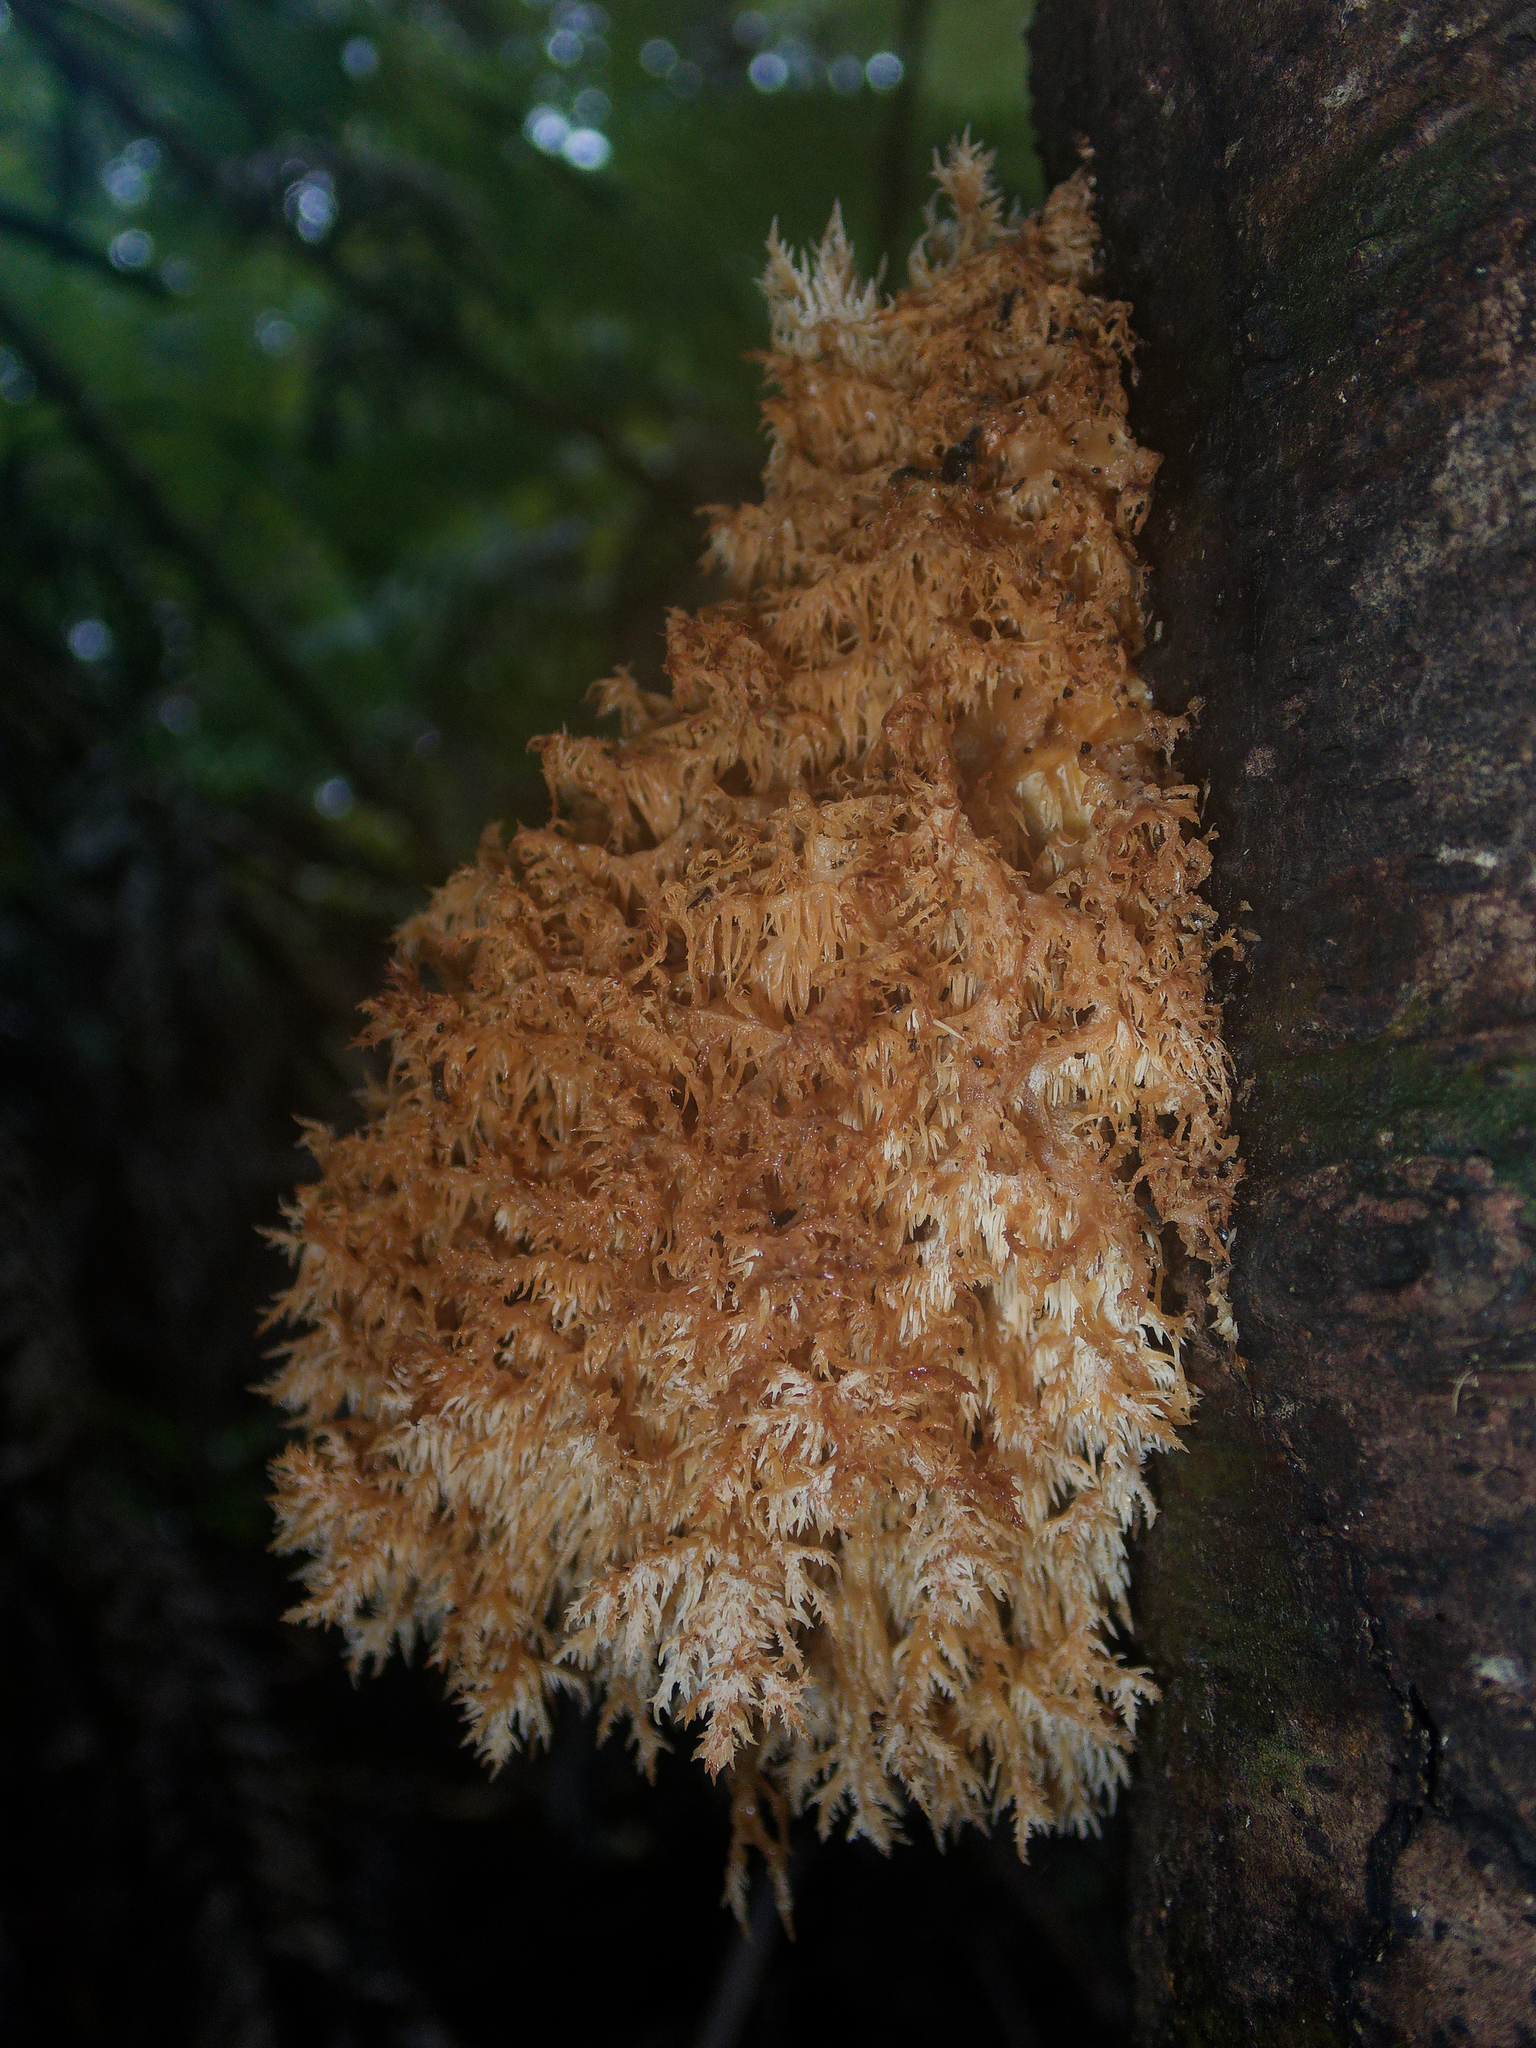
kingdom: Fungi
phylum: Basidiomycota
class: Agaricomycetes
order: Russulales
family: Hericiaceae
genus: Hericium
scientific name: Hericium novae-zealandiae
